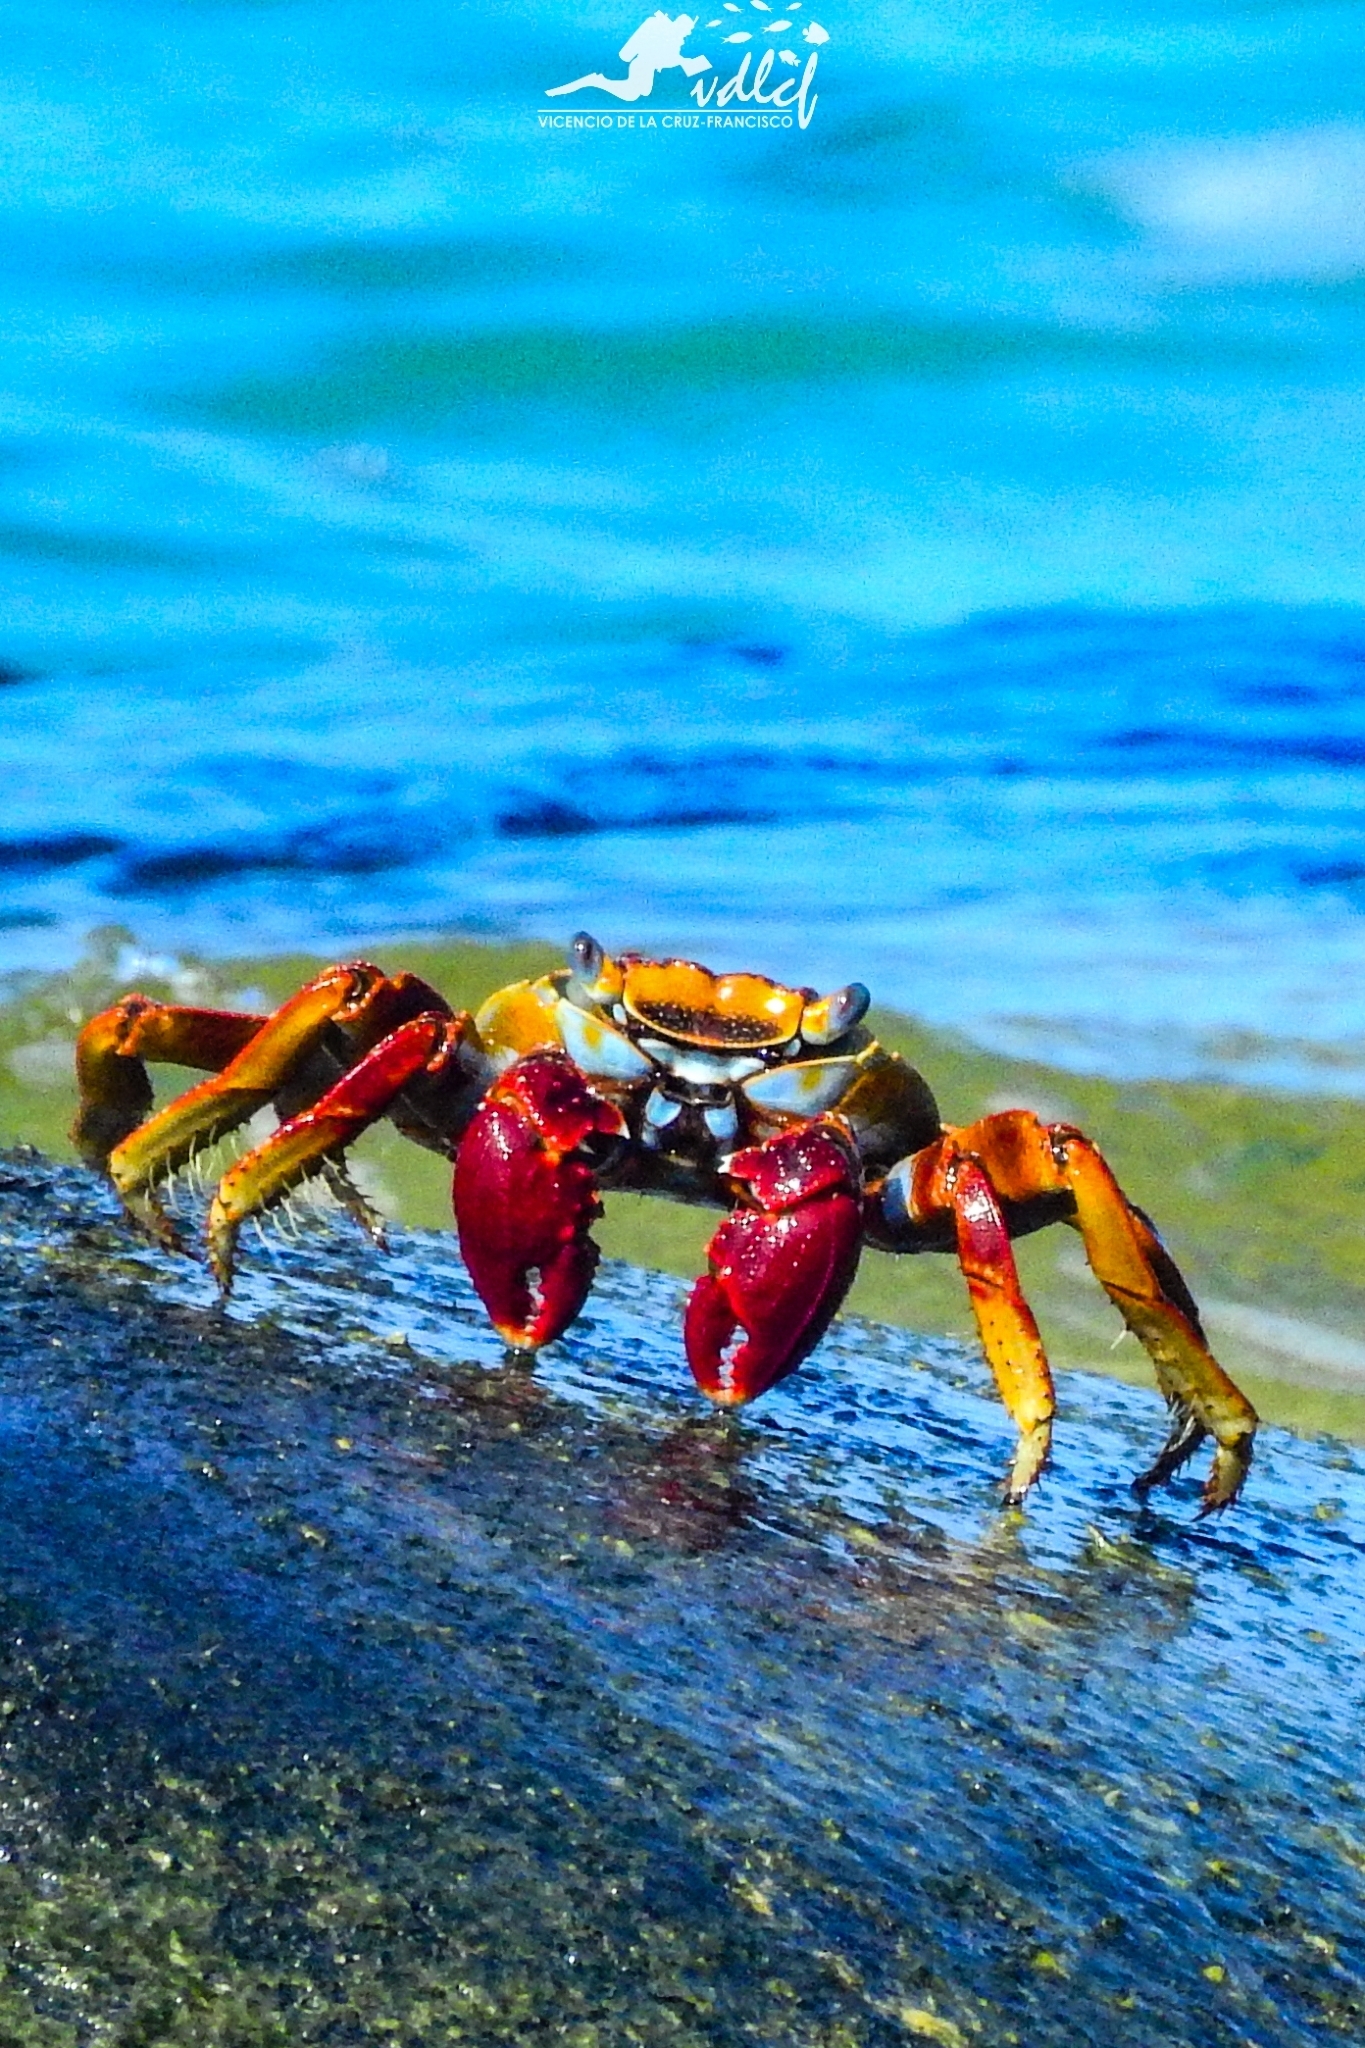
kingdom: Animalia
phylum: Arthropoda
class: Malacostraca
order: Decapoda
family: Grapsidae
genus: Grapsus
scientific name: Grapsus grapsus
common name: Sally lightfoot
